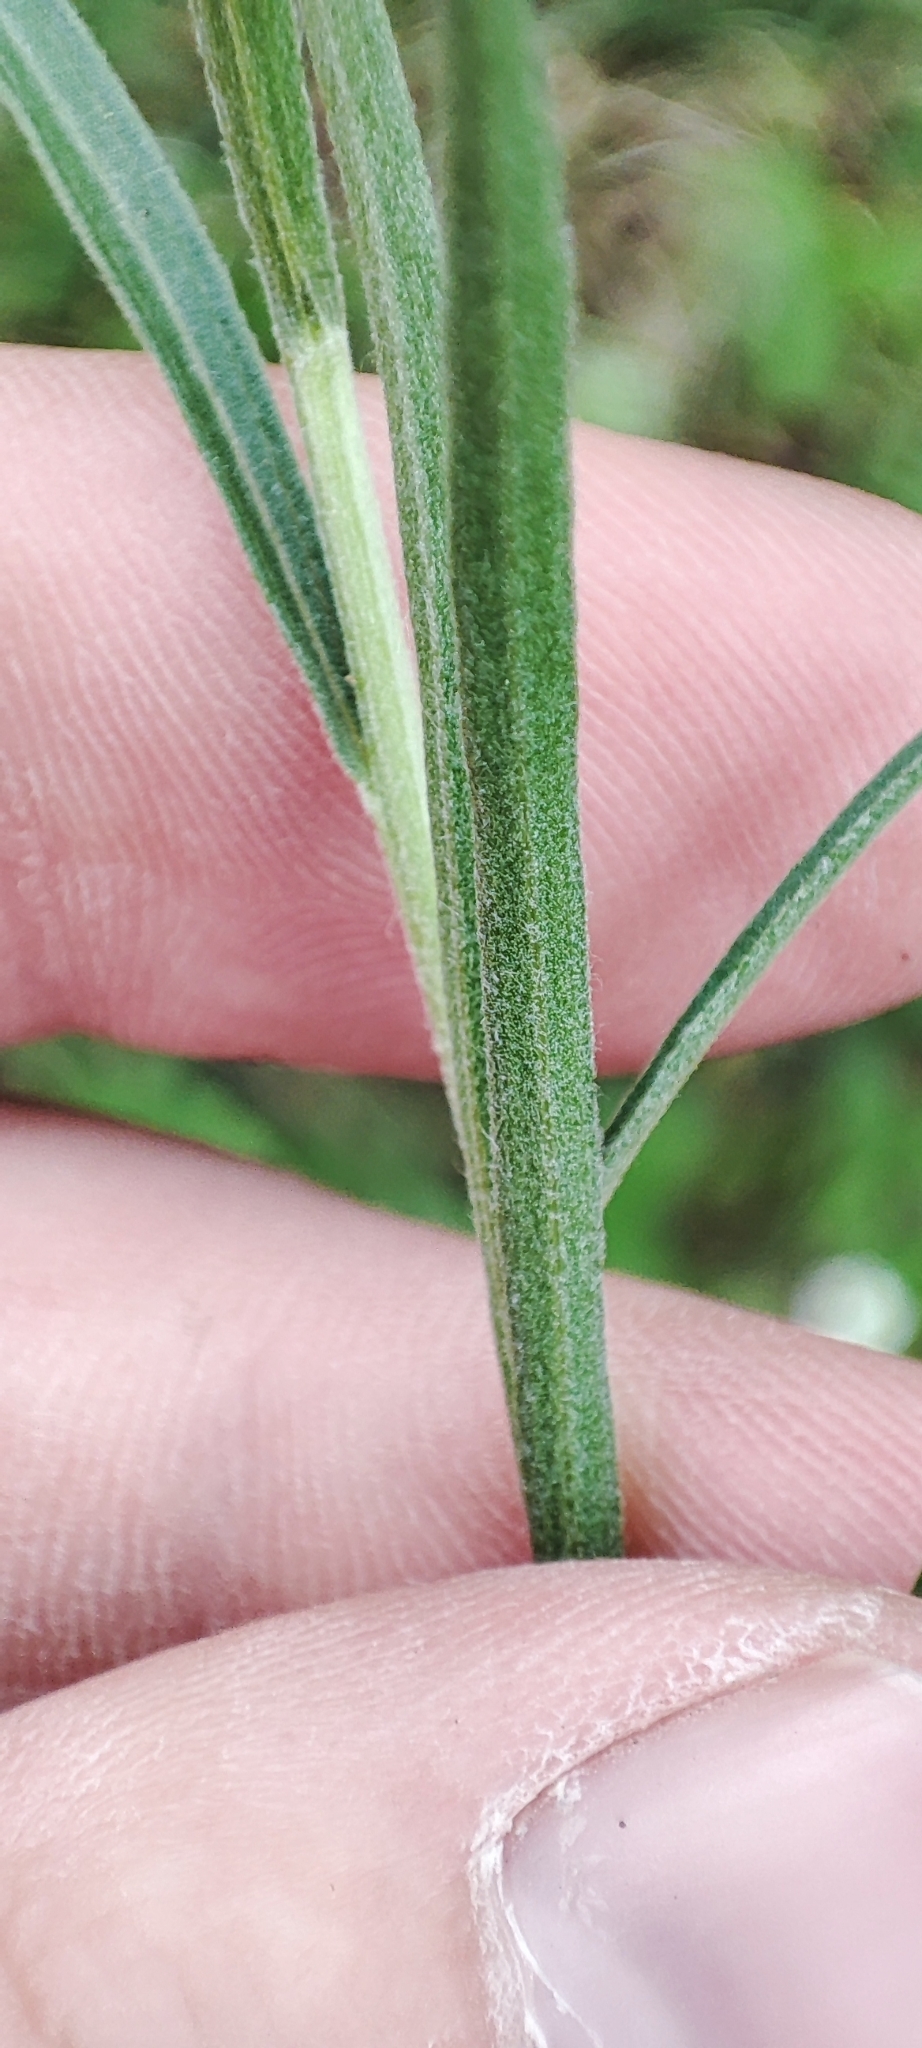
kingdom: Plantae
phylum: Tracheophyta
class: Magnoliopsida
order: Asterales
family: Asteraceae
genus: Artemisia
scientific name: Artemisia dracunculus
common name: Tarragon
